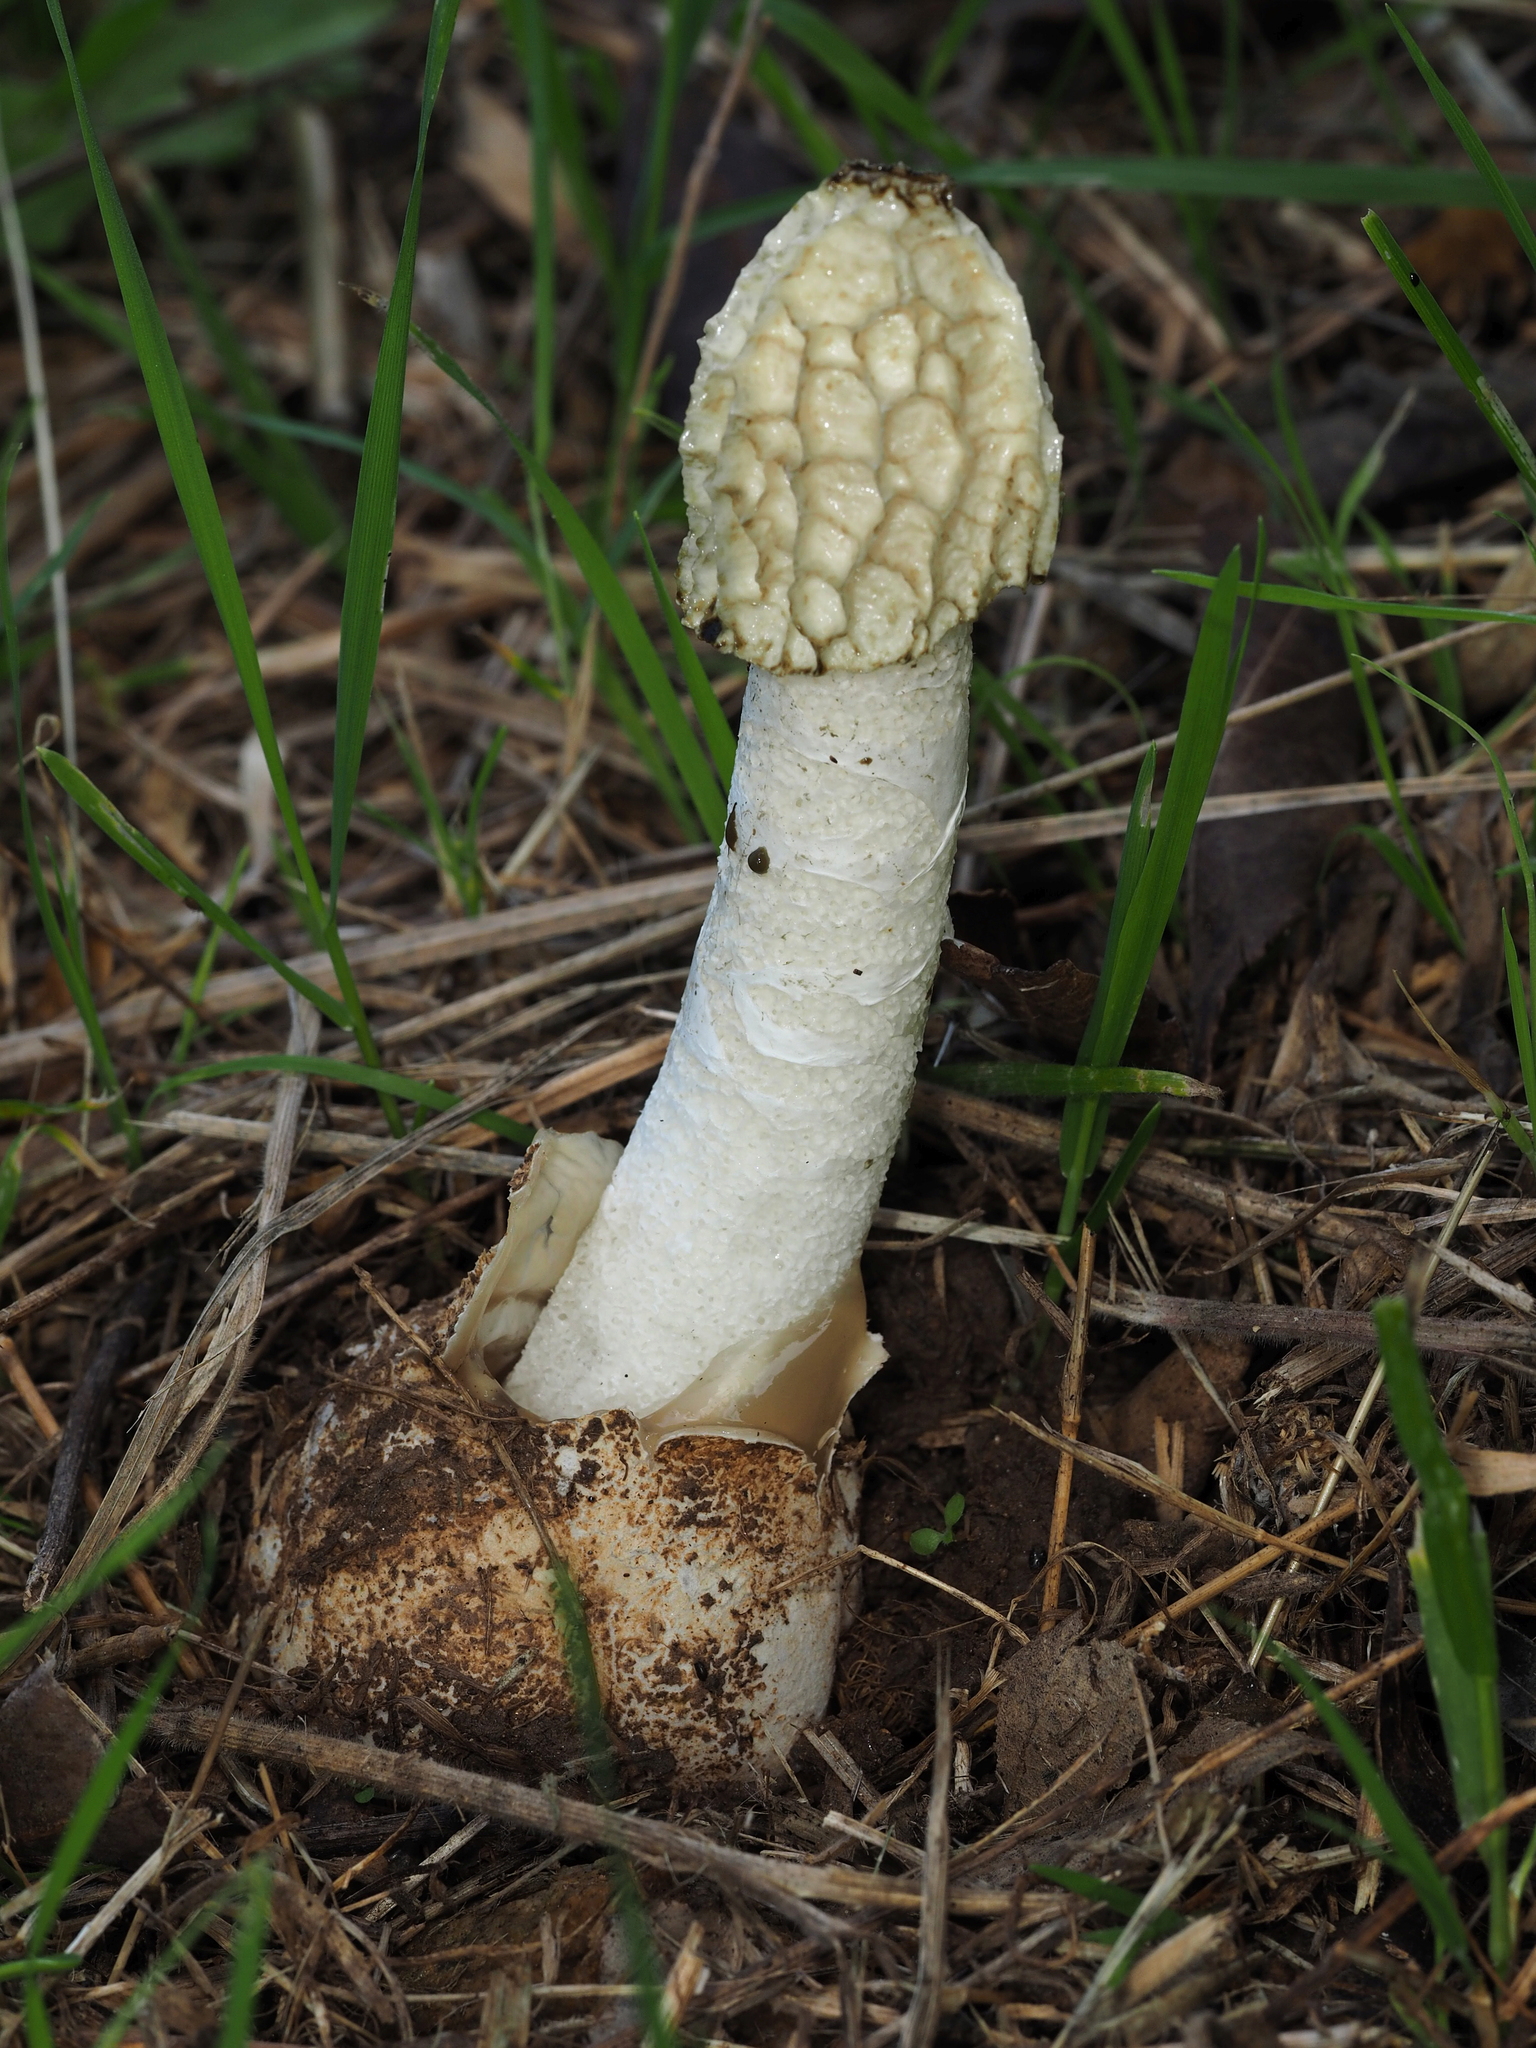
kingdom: Fungi
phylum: Basidiomycota
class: Agaricomycetes
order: Phallales
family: Phallaceae
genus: Phallus
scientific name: Phallus impudicus
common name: Common stinkhorn
